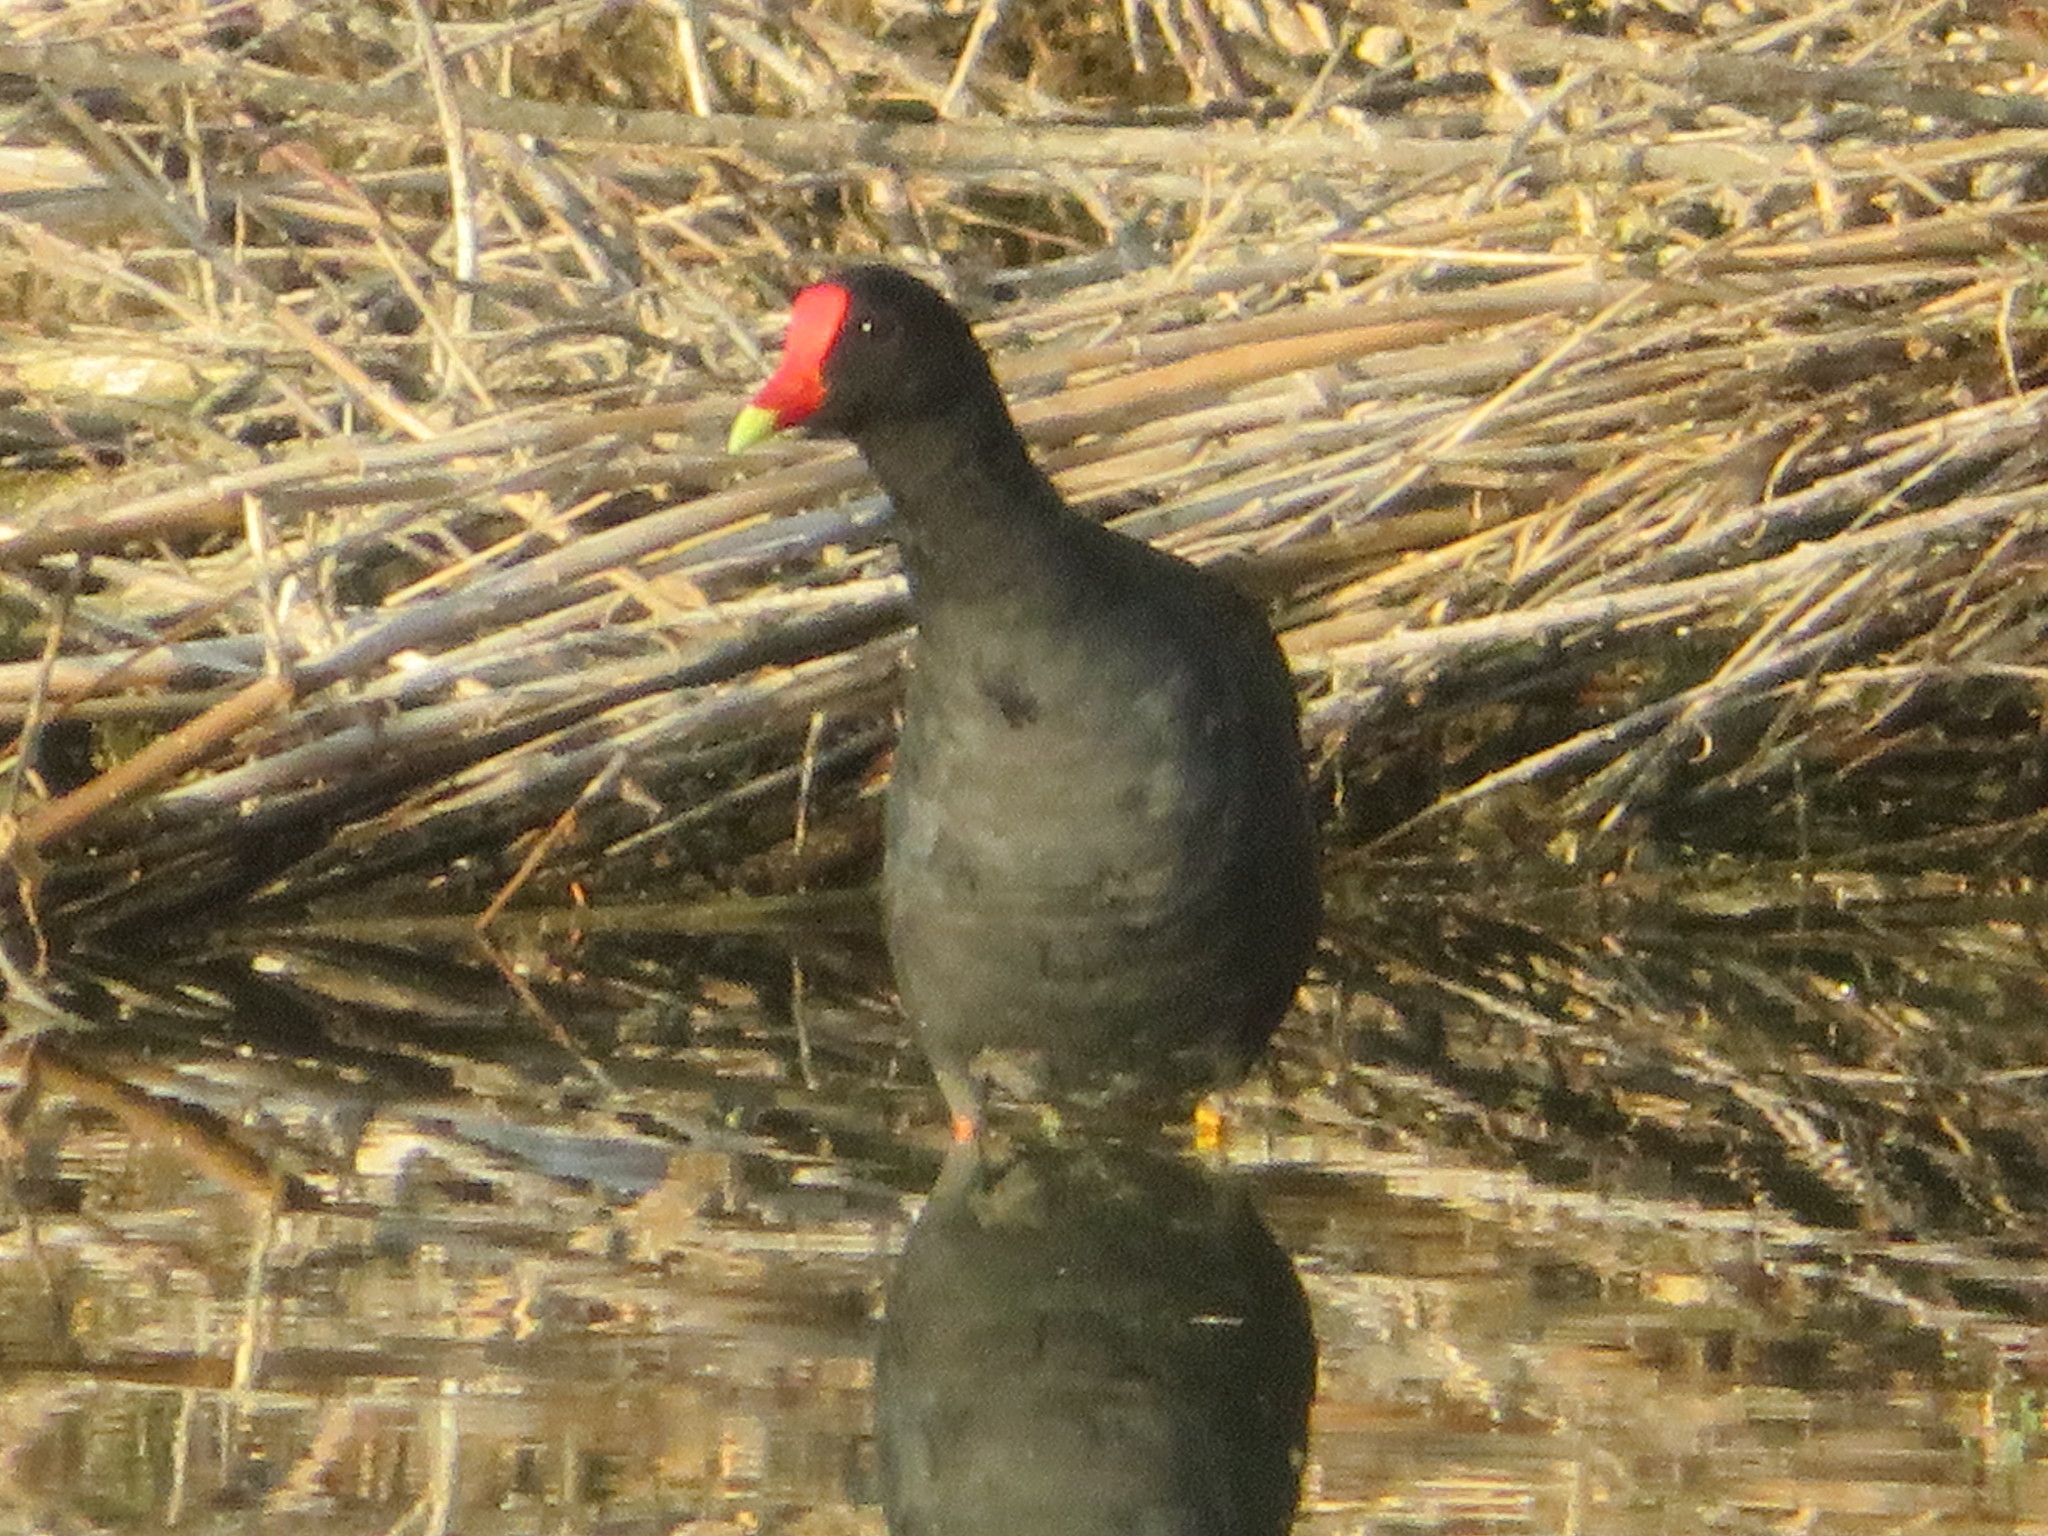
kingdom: Animalia
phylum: Chordata
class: Aves
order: Gruiformes
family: Rallidae
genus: Gallinula
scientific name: Gallinula chloropus
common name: Common moorhen
